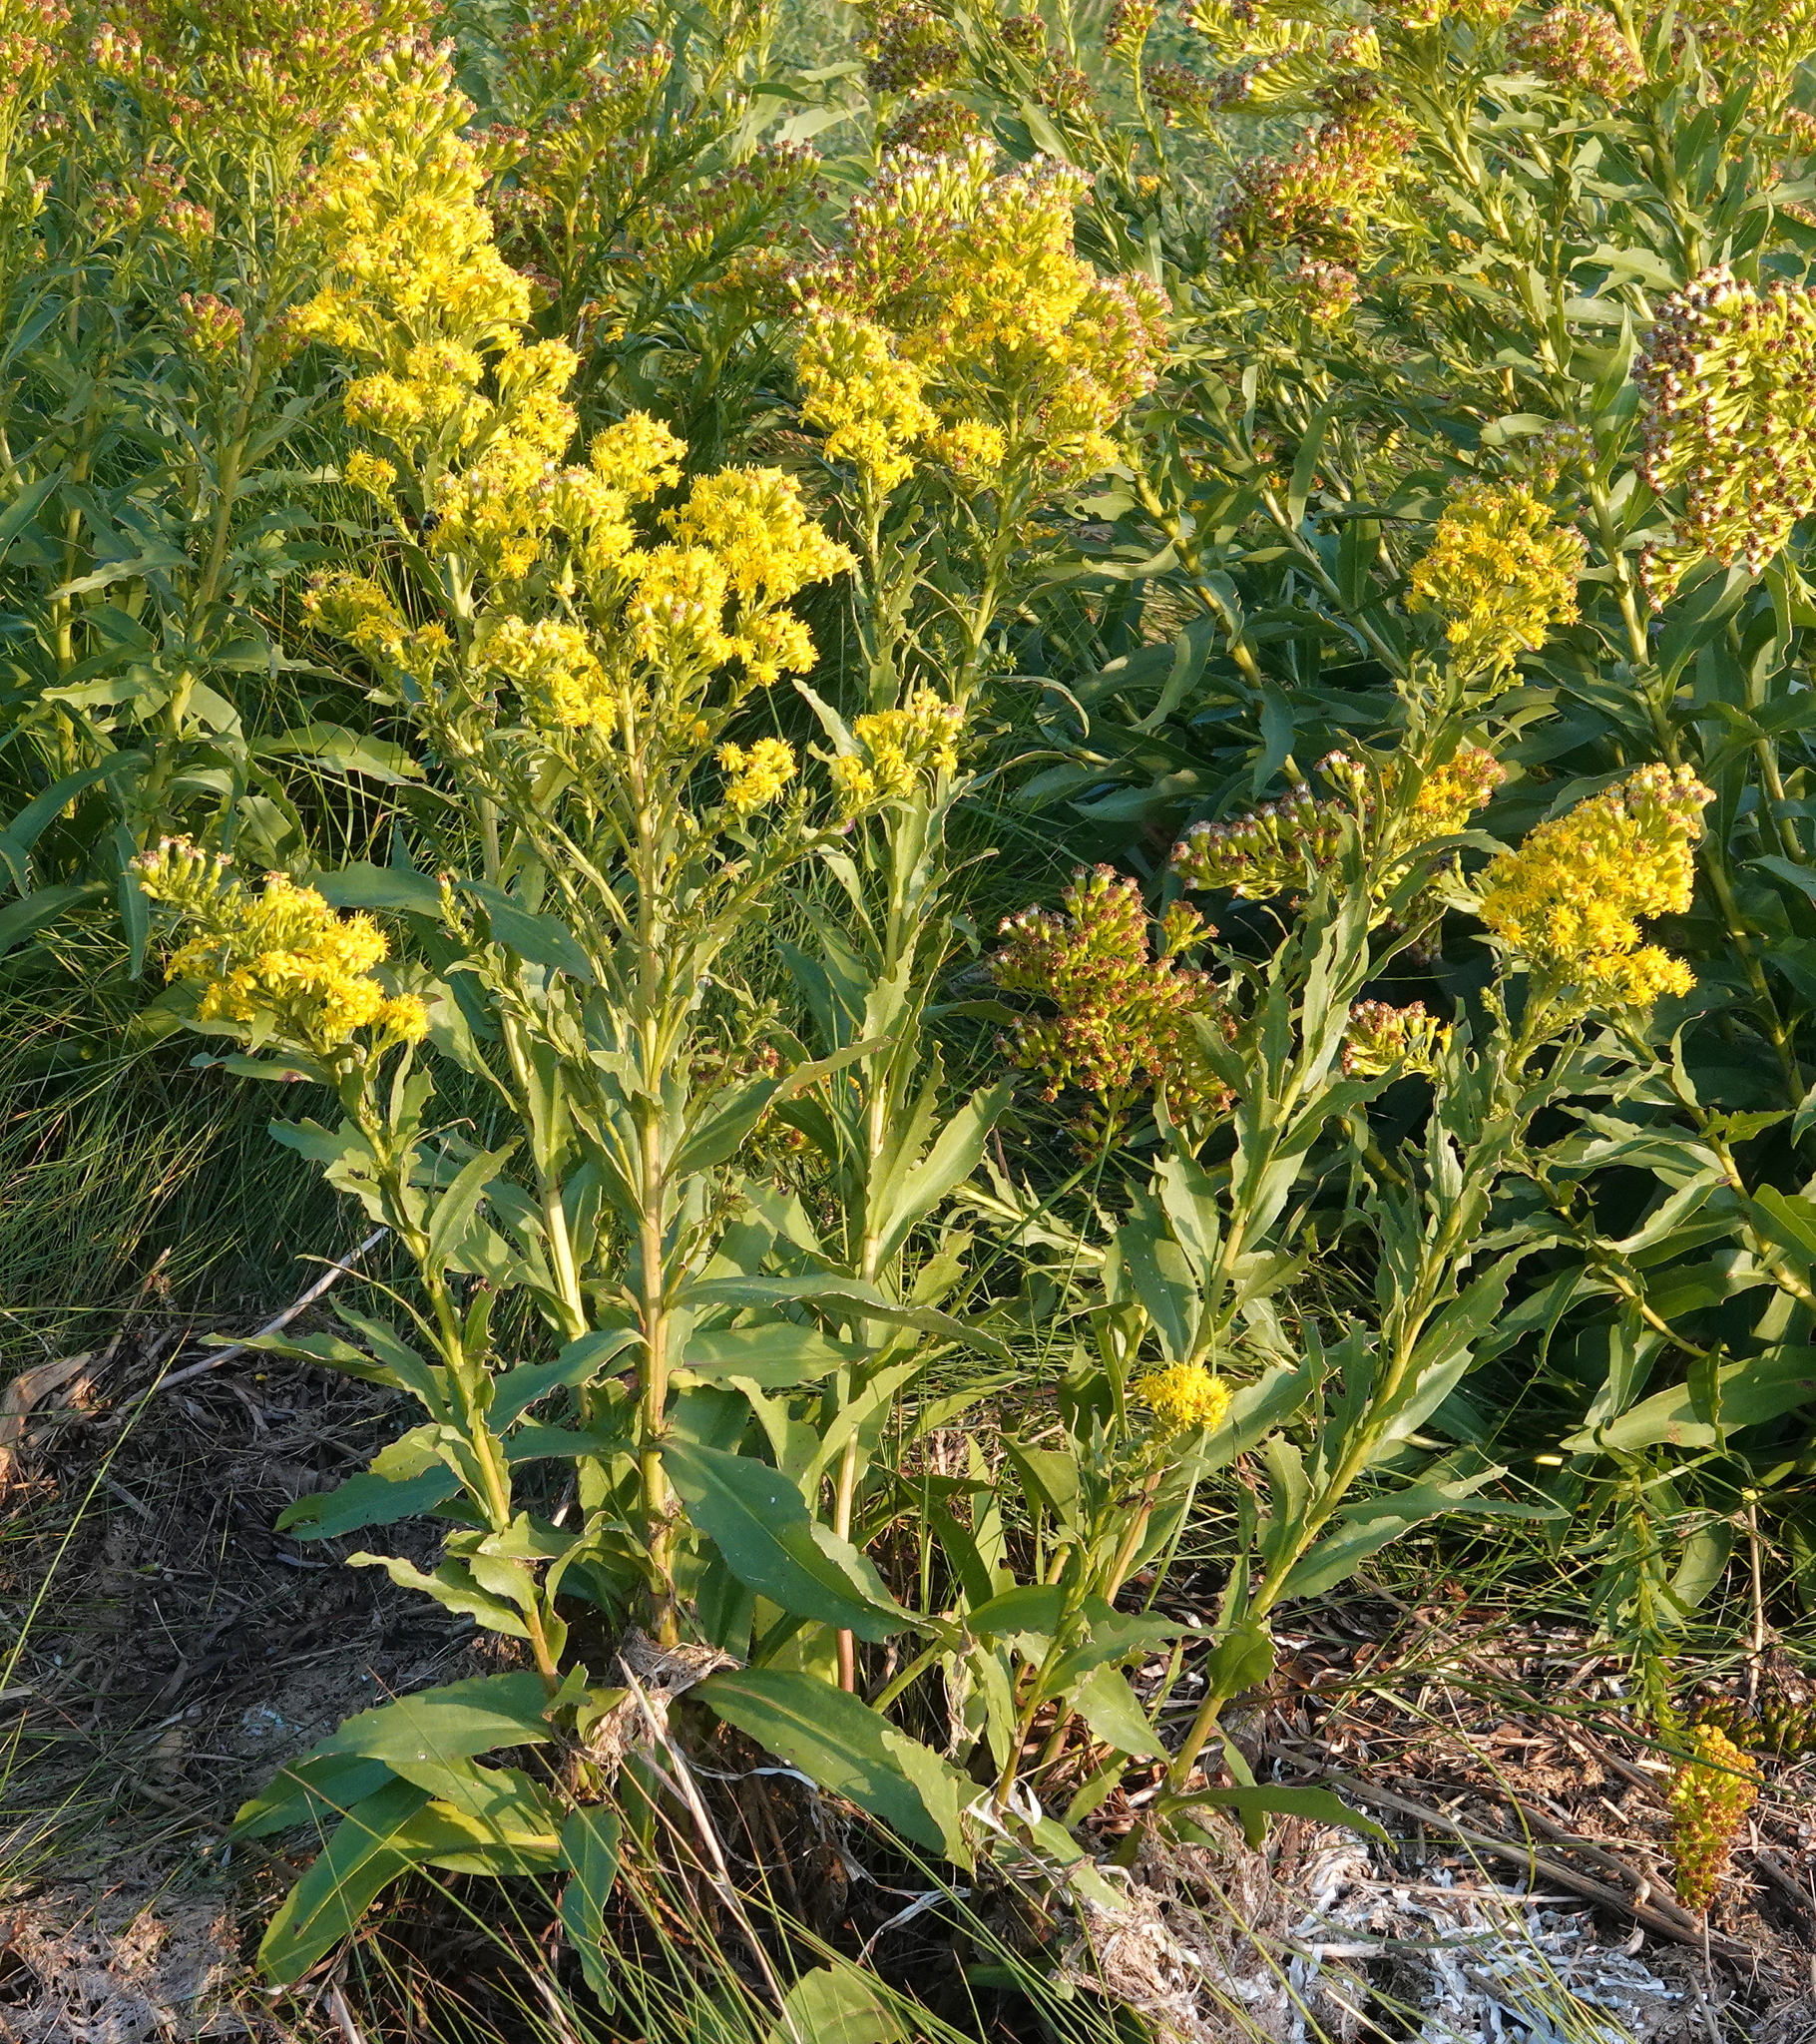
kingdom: Plantae
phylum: Tracheophyta
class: Magnoliopsida
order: Asterales
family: Asteraceae
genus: Solidago
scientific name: Solidago sempervirens
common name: Salt-marsh goldenrod
